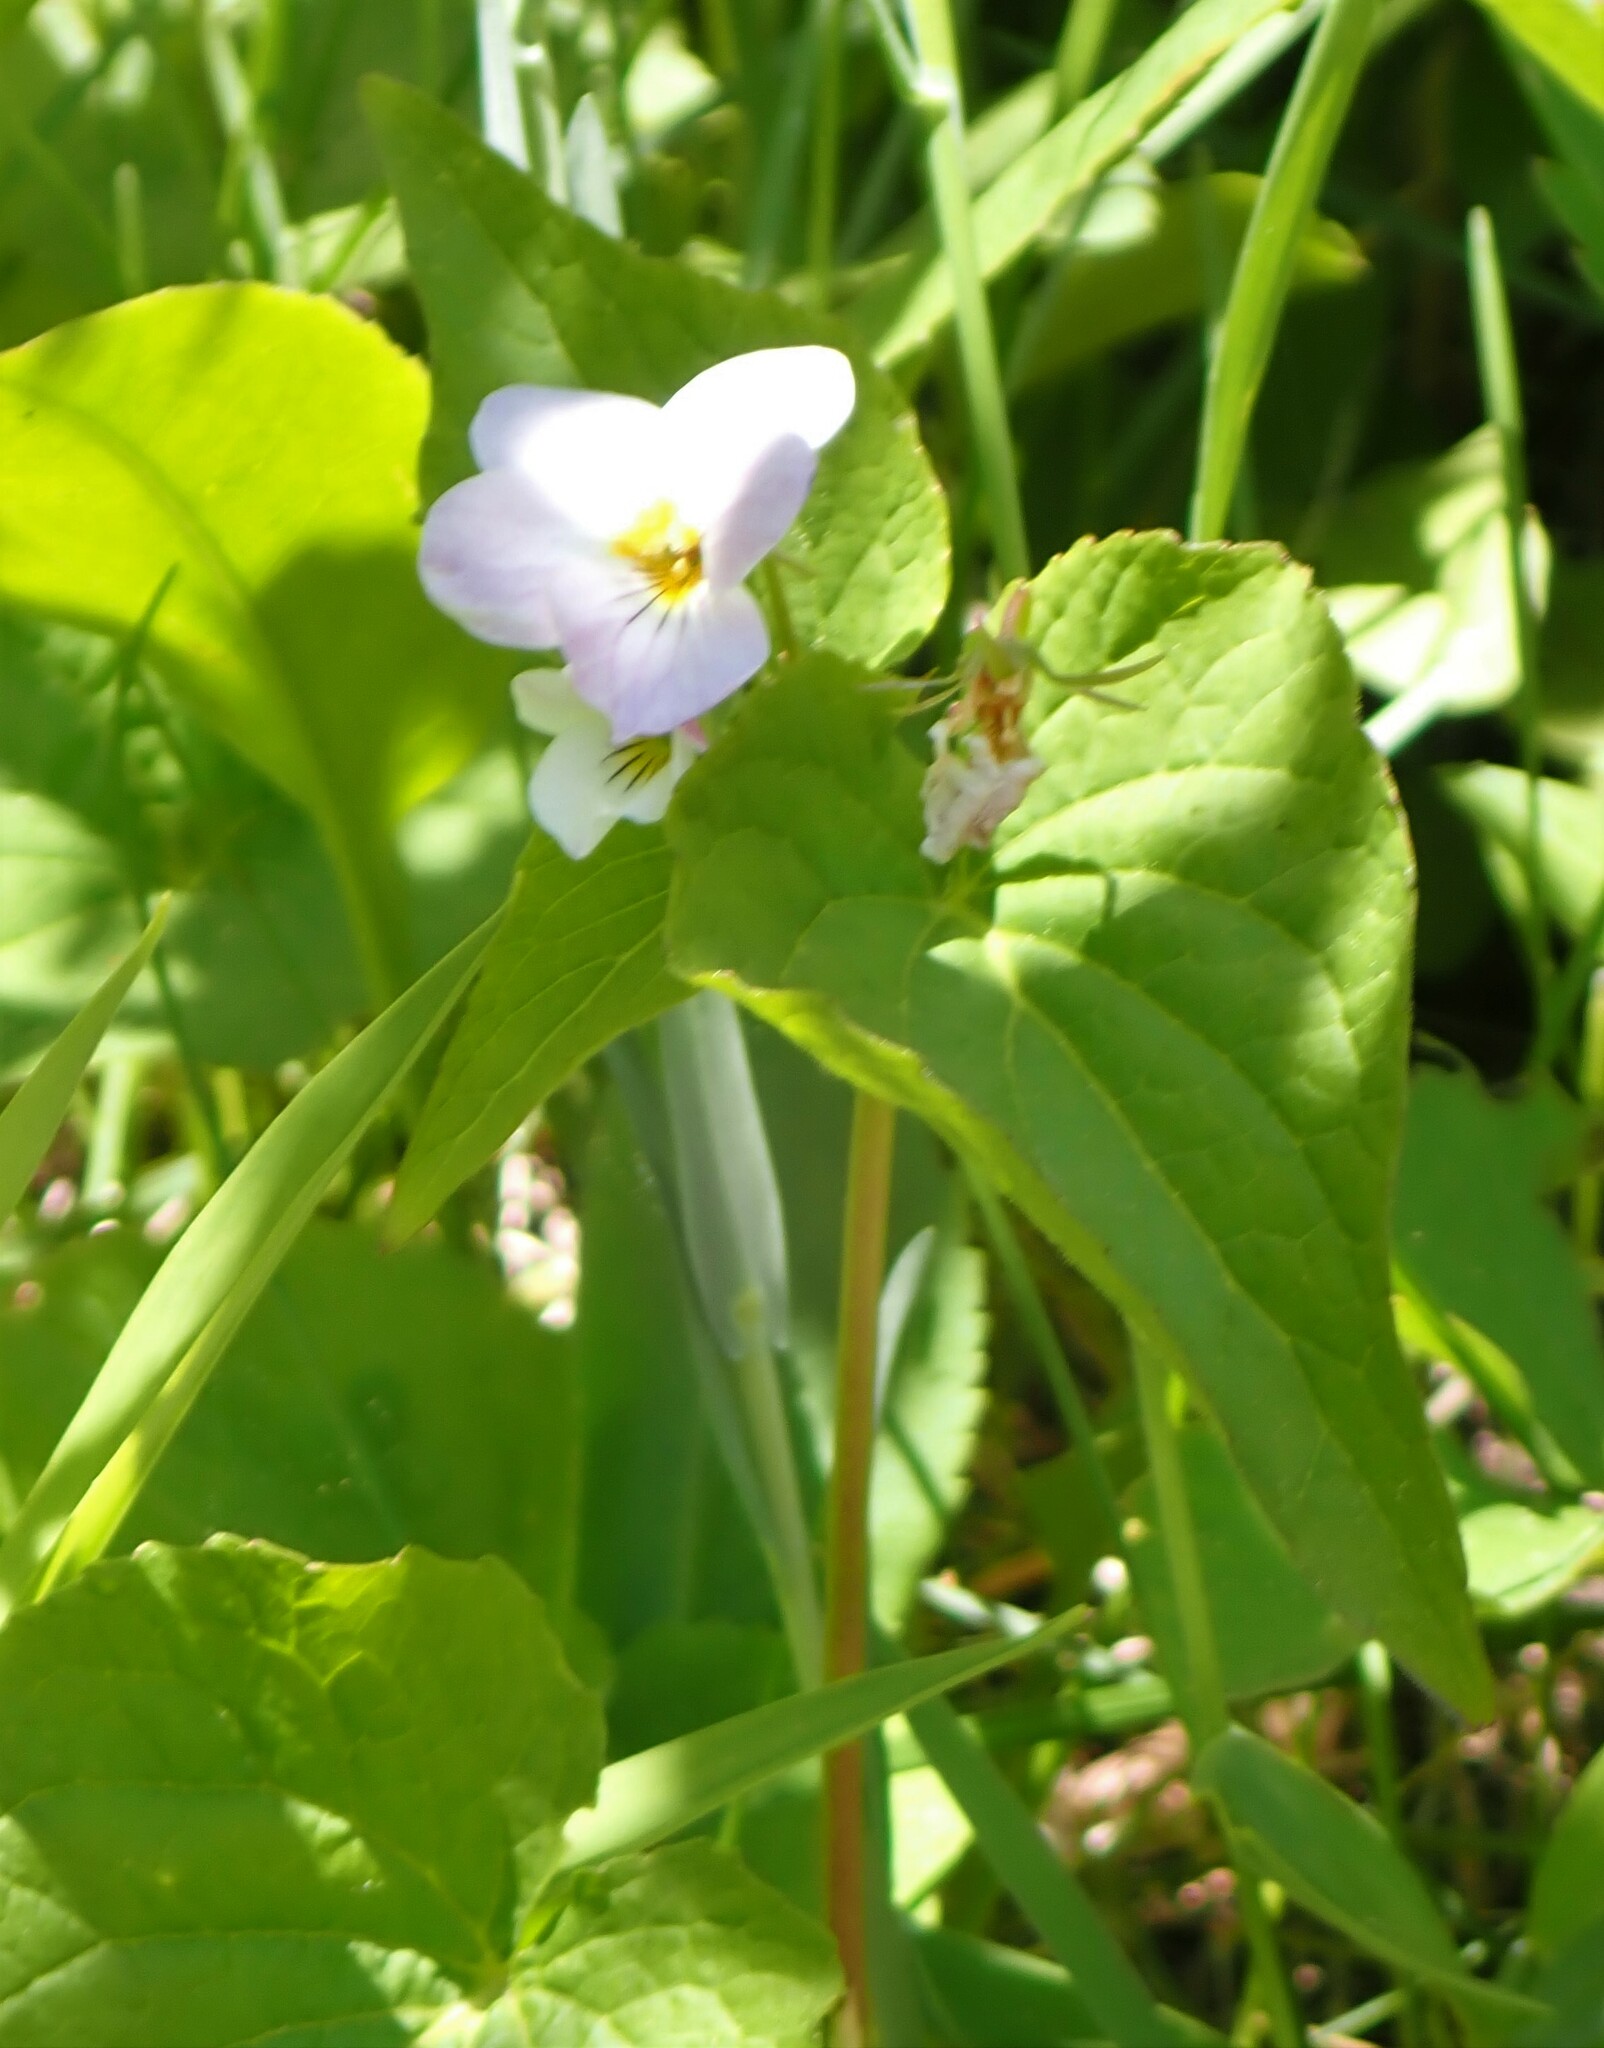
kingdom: Plantae
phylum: Tracheophyta
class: Magnoliopsida
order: Malpighiales
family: Violaceae
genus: Viola
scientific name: Viola canadensis
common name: Canada violet
